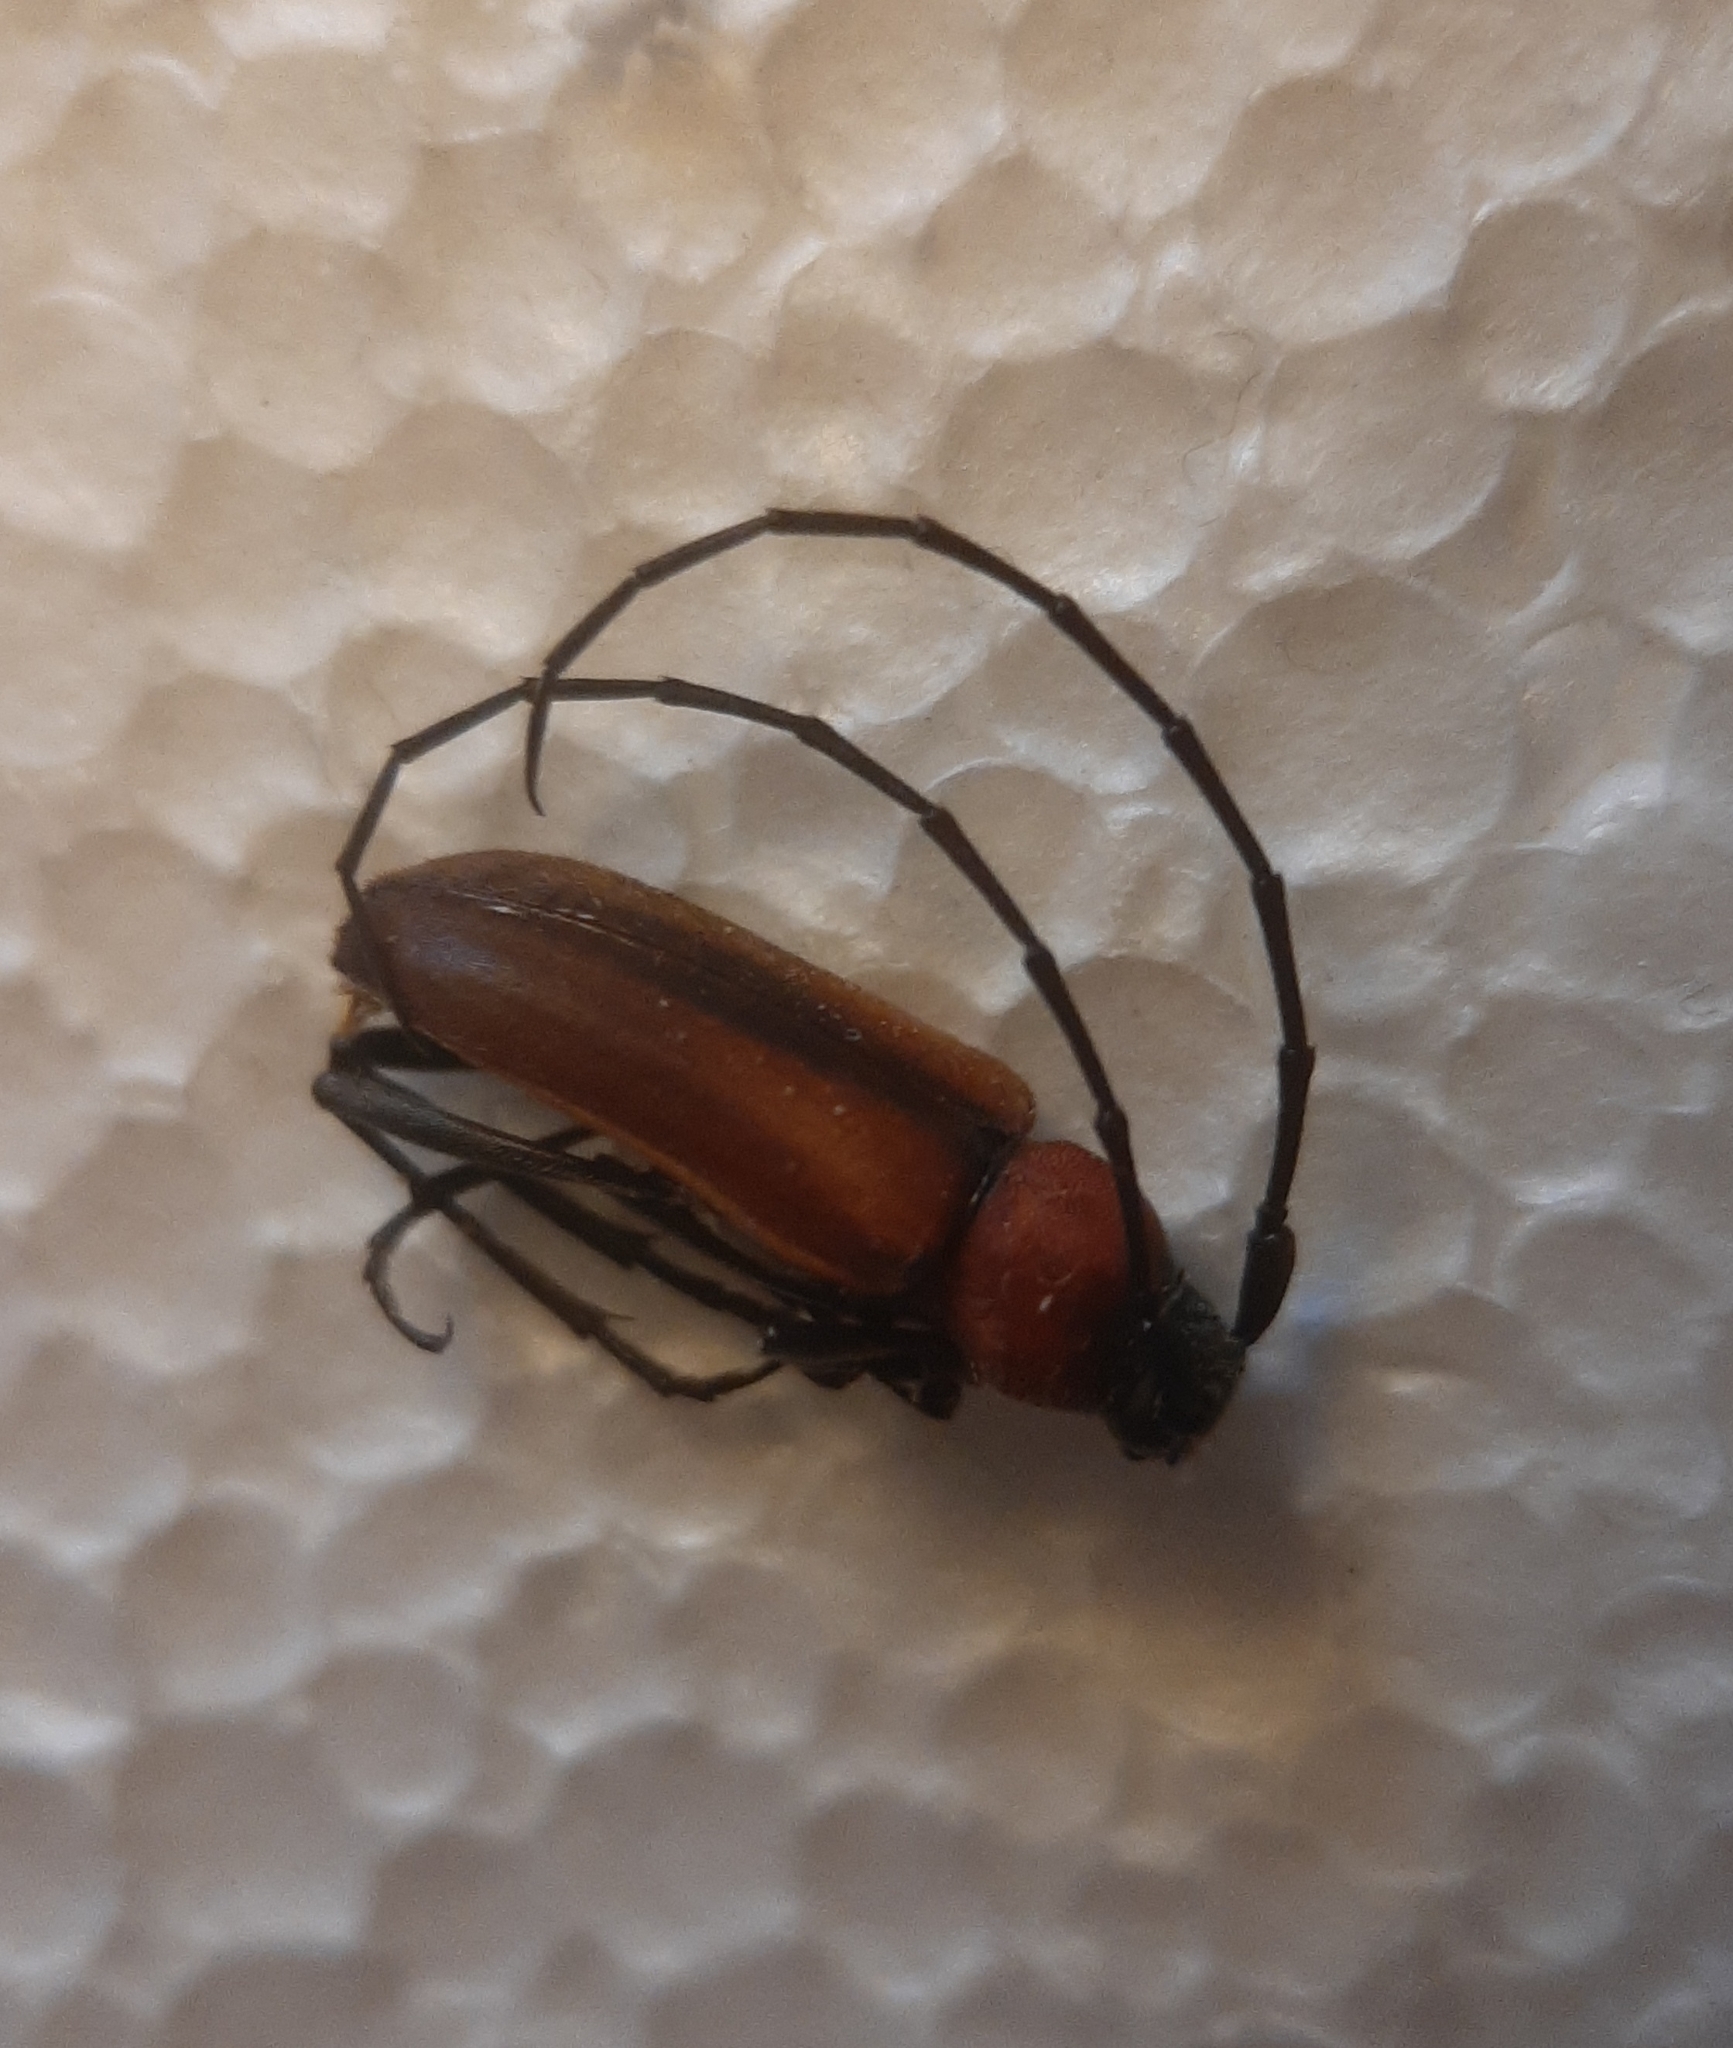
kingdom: Animalia
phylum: Arthropoda
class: Insecta
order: Coleoptera
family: Cerambycidae
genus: Muscidora
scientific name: Muscidora
